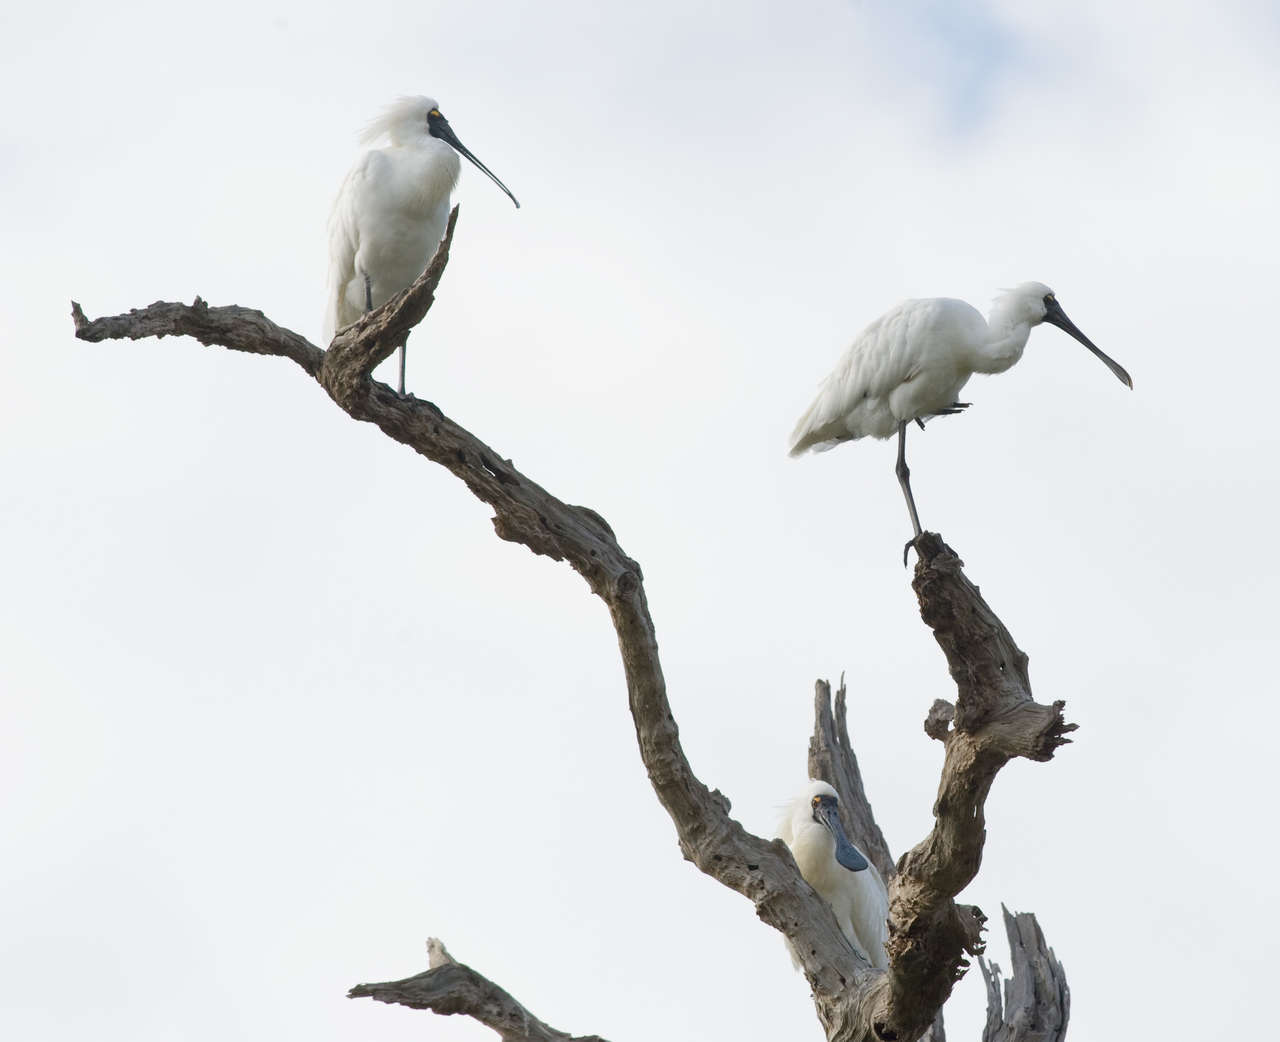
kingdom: Animalia
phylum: Chordata
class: Aves
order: Pelecaniformes
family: Threskiornithidae
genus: Platalea
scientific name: Platalea regia
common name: Royal spoonbill
